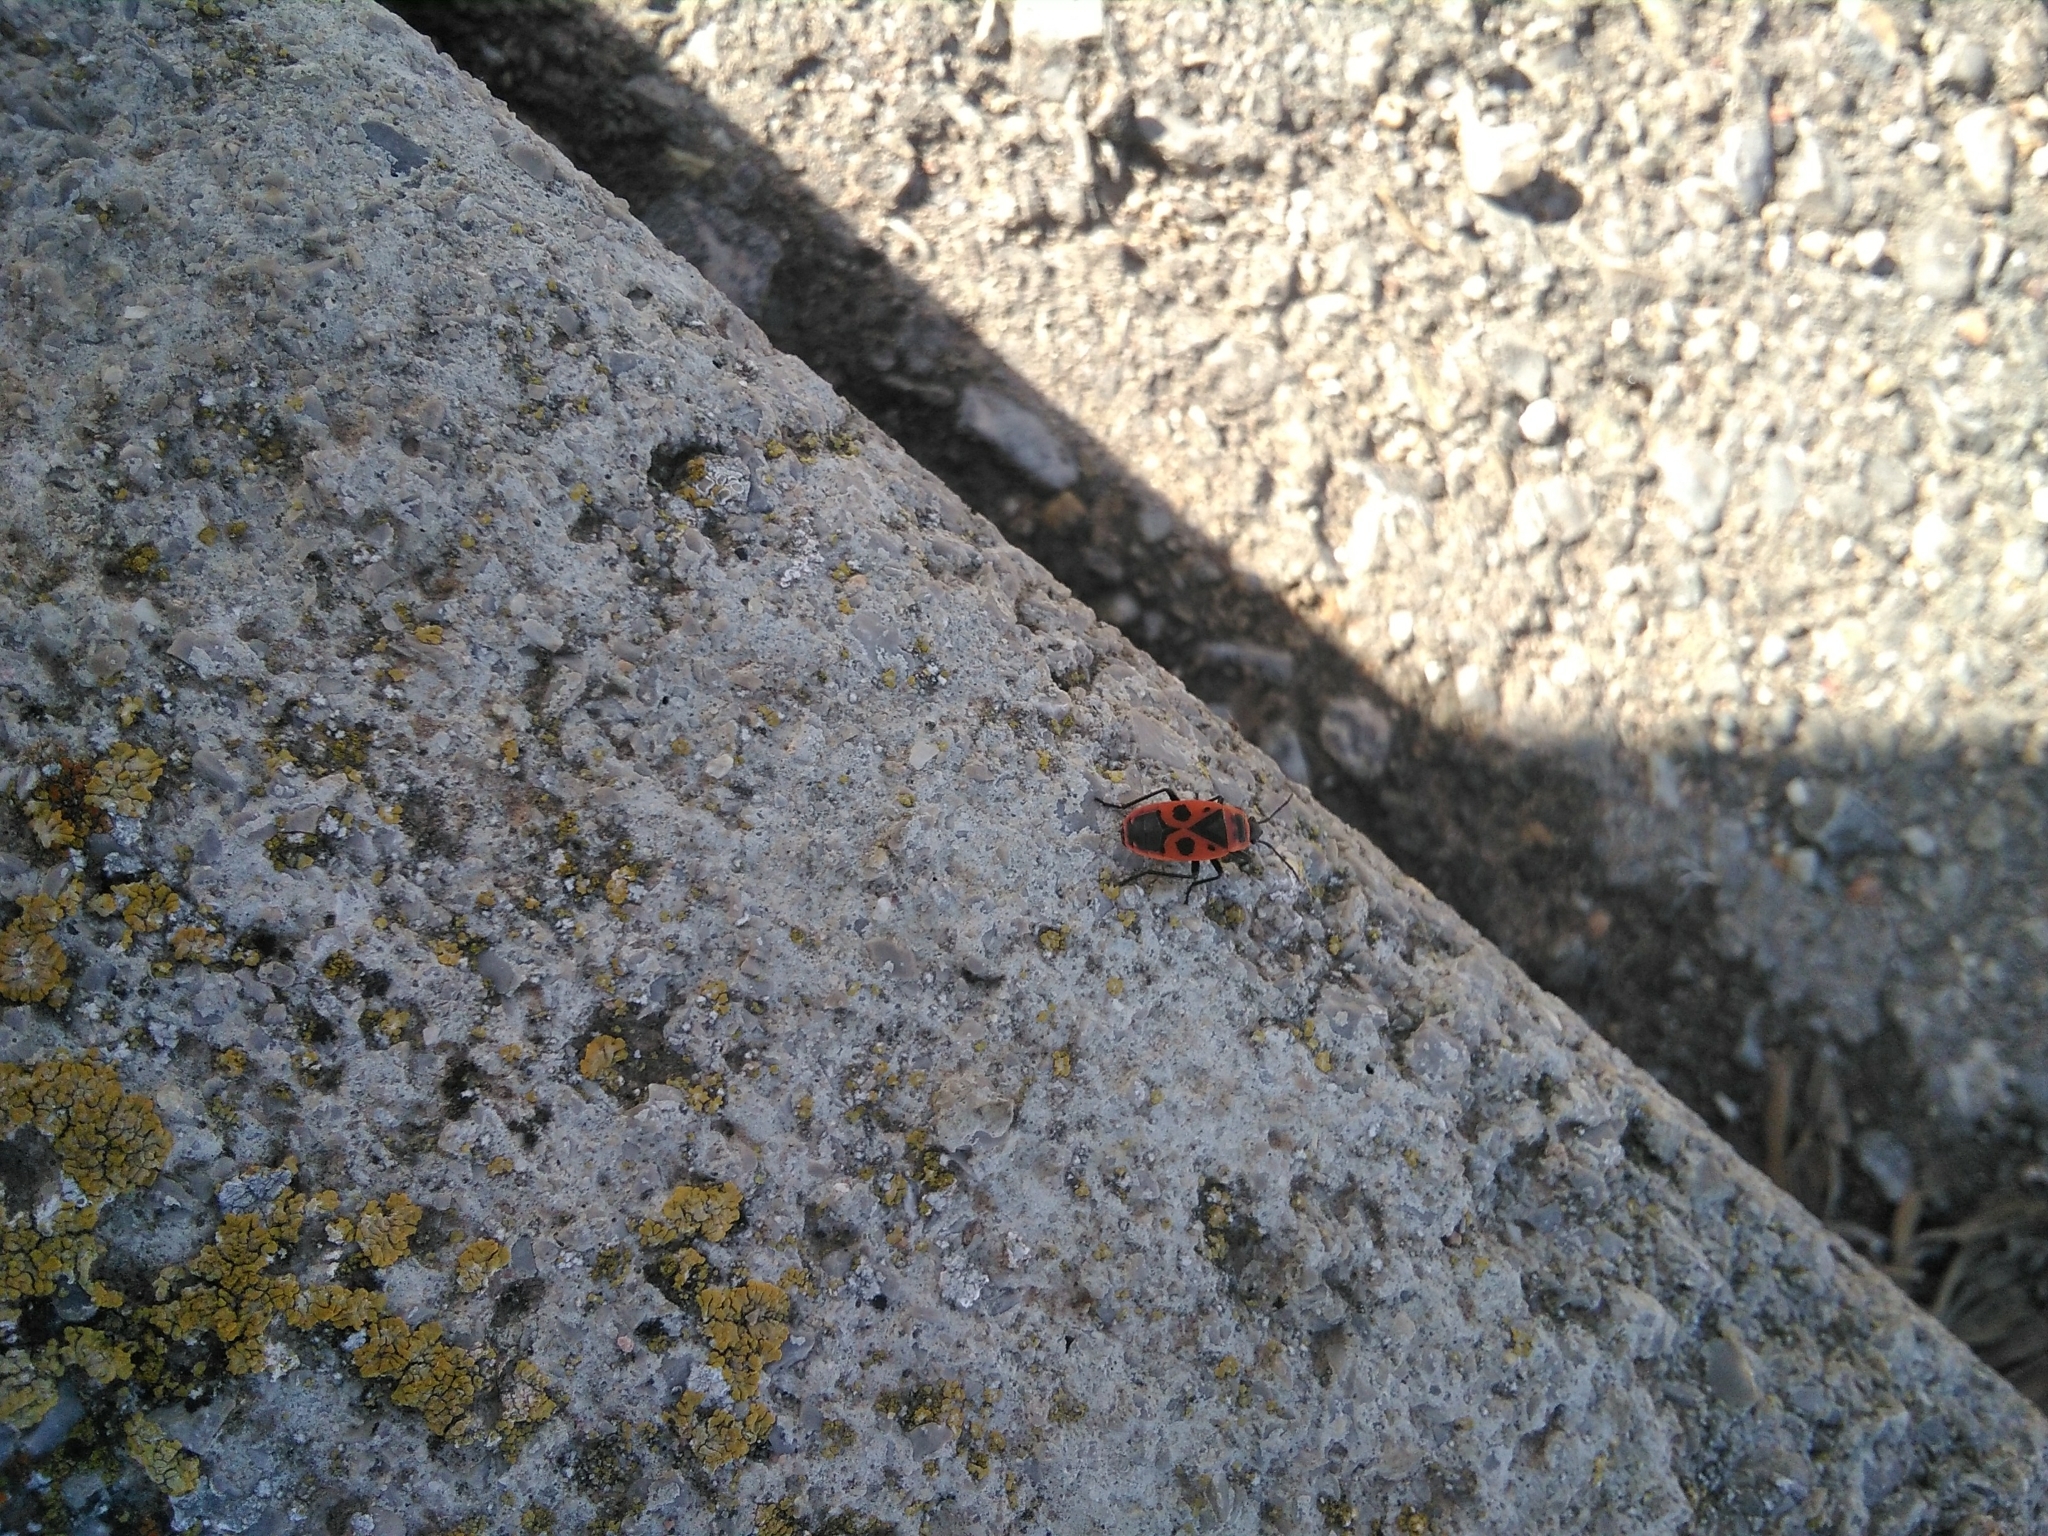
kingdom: Animalia
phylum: Arthropoda
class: Insecta
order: Hemiptera
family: Pyrrhocoridae
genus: Pyrrhocoris
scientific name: Pyrrhocoris apterus
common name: Firebug
